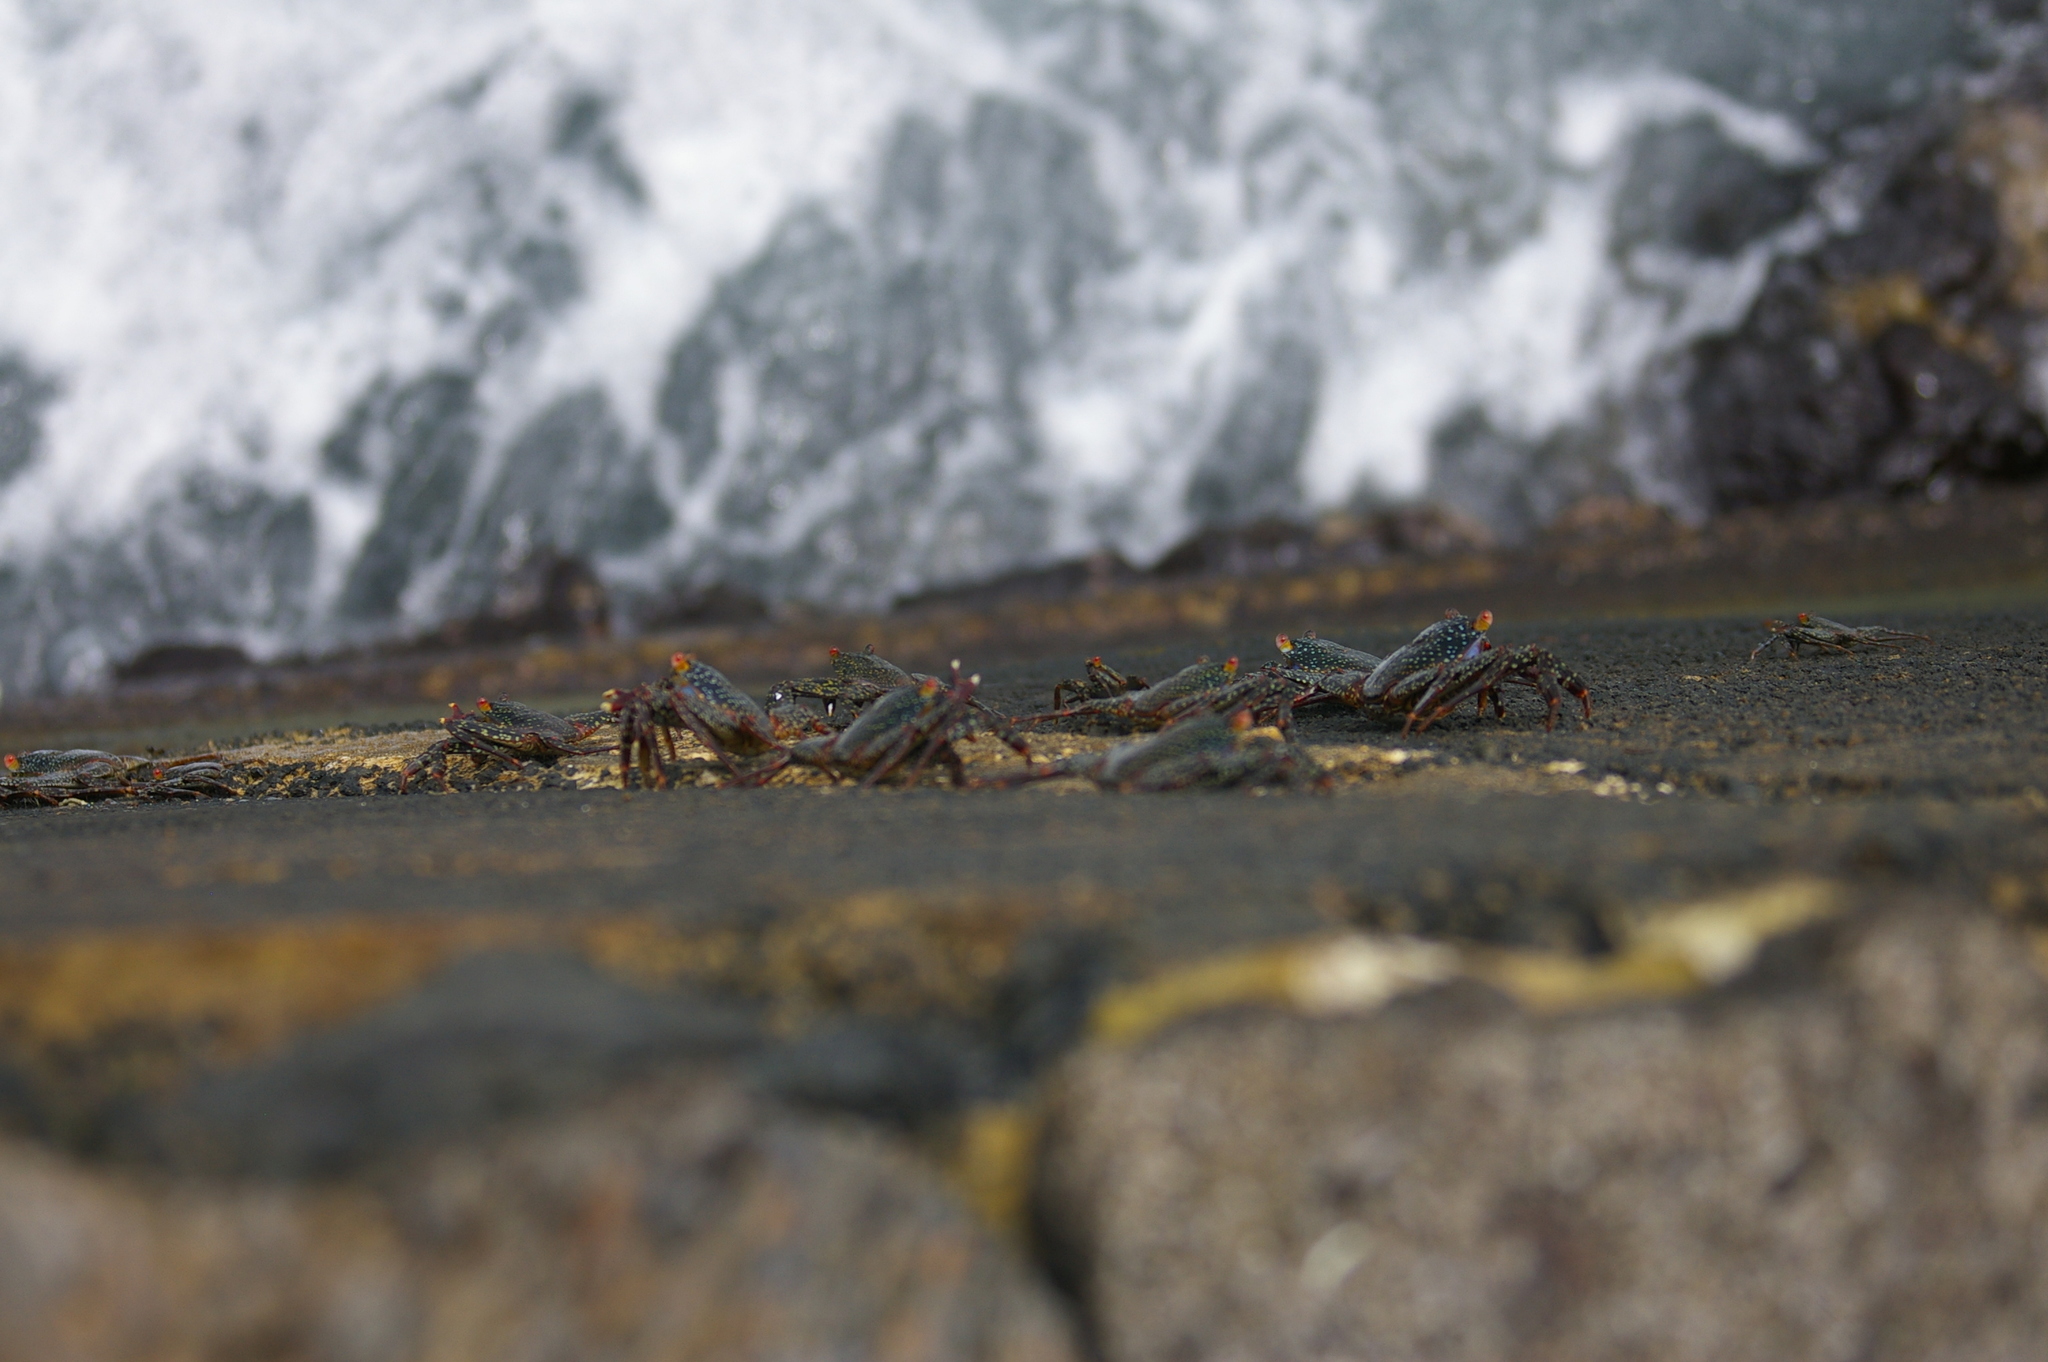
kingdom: Animalia
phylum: Arthropoda
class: Malacostraca
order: Decapoda
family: Grapsidae
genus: Grapsus
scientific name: Grapsus grapsus
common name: Sally lightfoot
